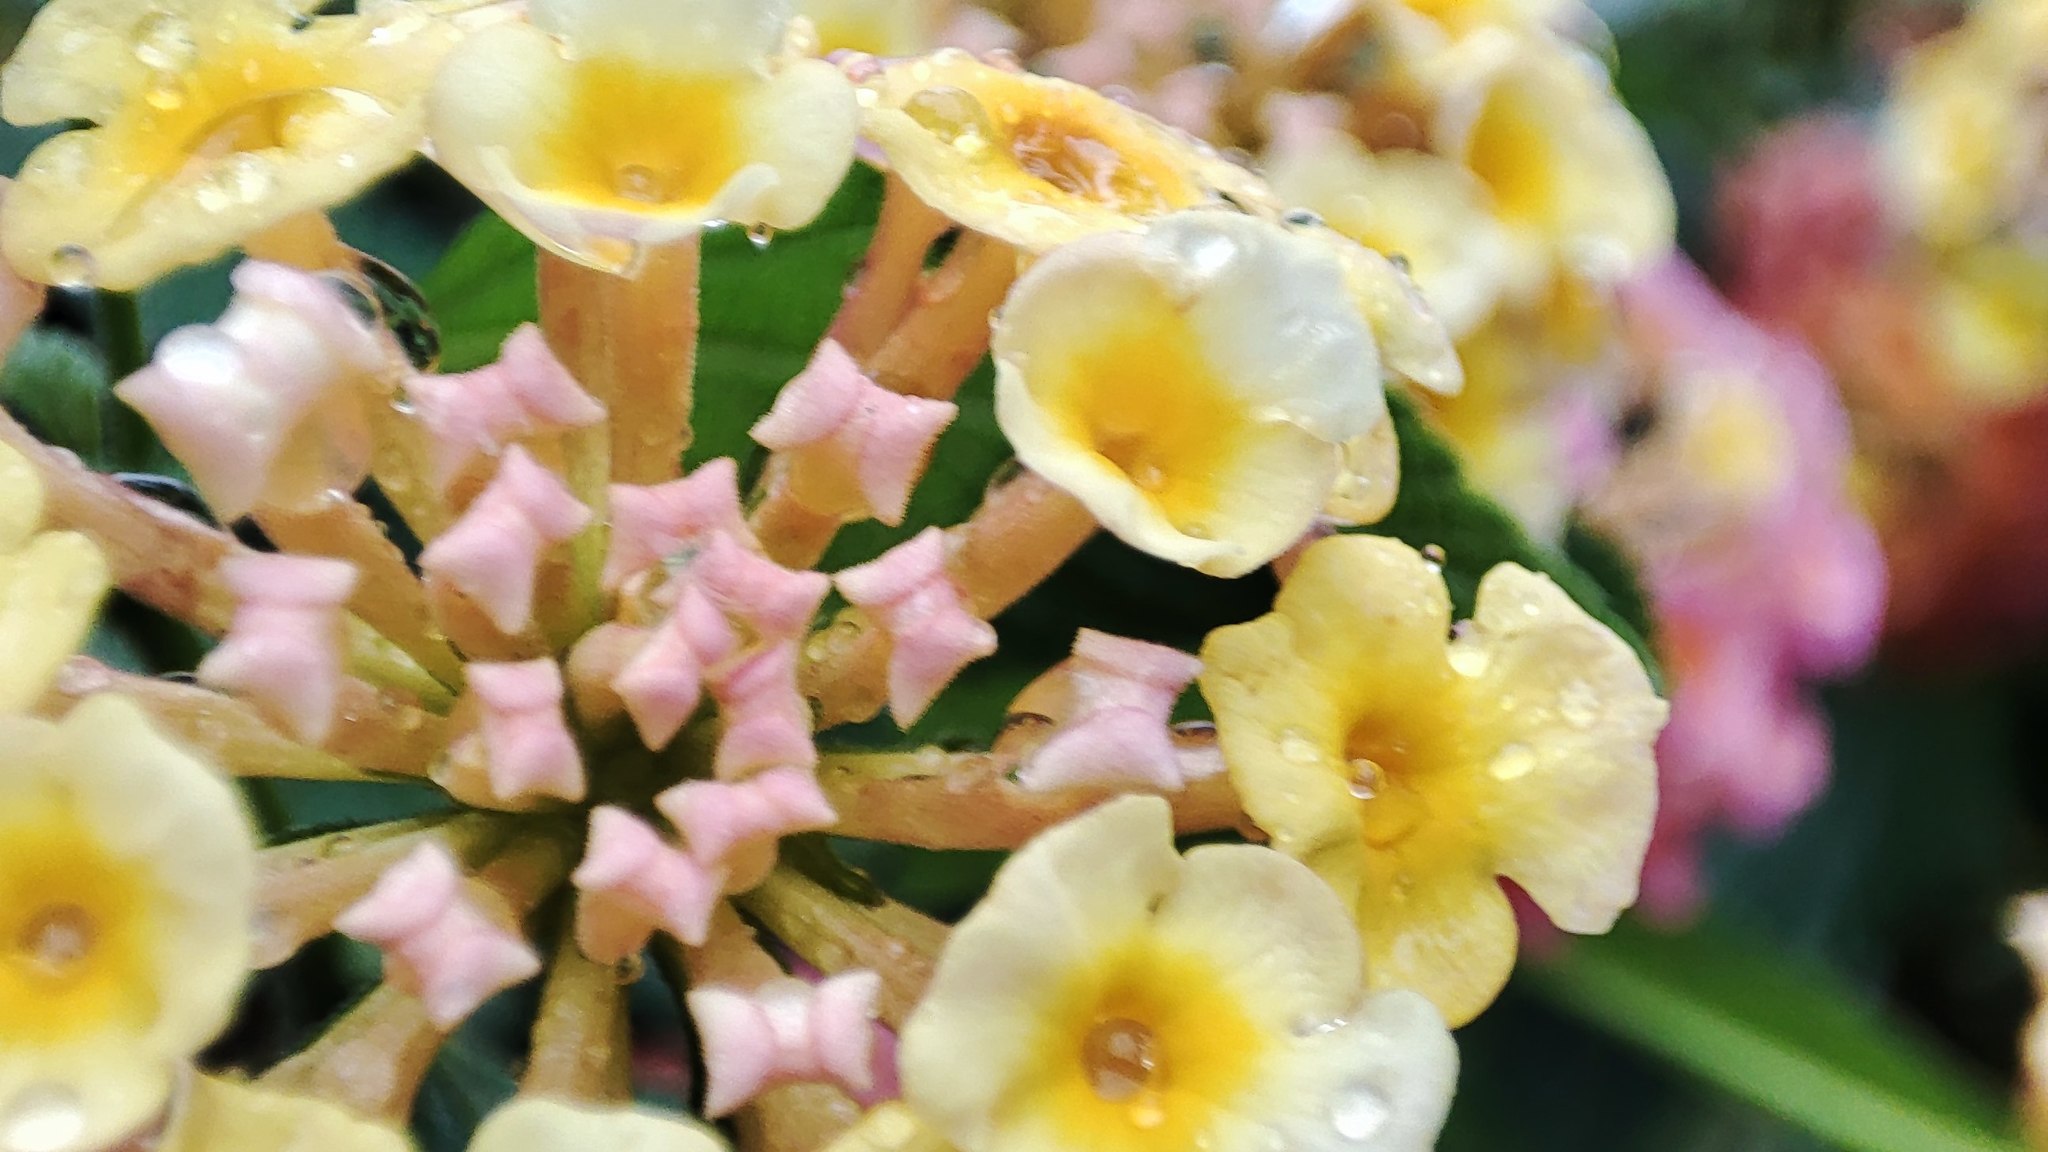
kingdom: Plantae
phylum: Tracheophyta
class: Magnoliopsida
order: Lamiales
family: Verbenaceae
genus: Lantana
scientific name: Lantana camara
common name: Lantana
